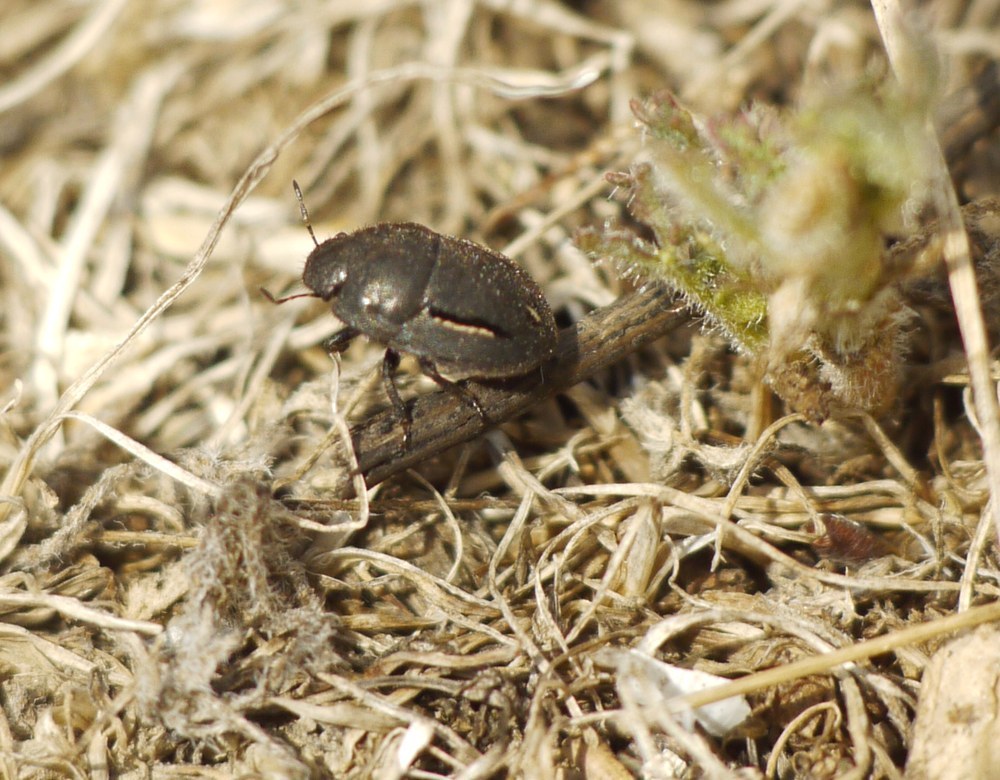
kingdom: Animalia
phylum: Arthropoda
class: Insecta
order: Hemiptera
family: Scutelleridae
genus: Odontoscelis
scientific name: Odontoscelis lineola
